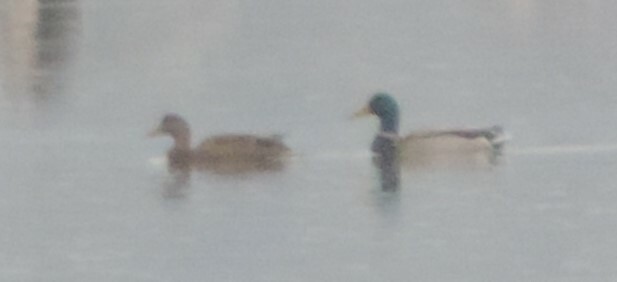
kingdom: Animalia
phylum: Chordata
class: Aves
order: Anseriformes
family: Anatidae
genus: Anas
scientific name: Anas platyrhynchos
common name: Mallard
